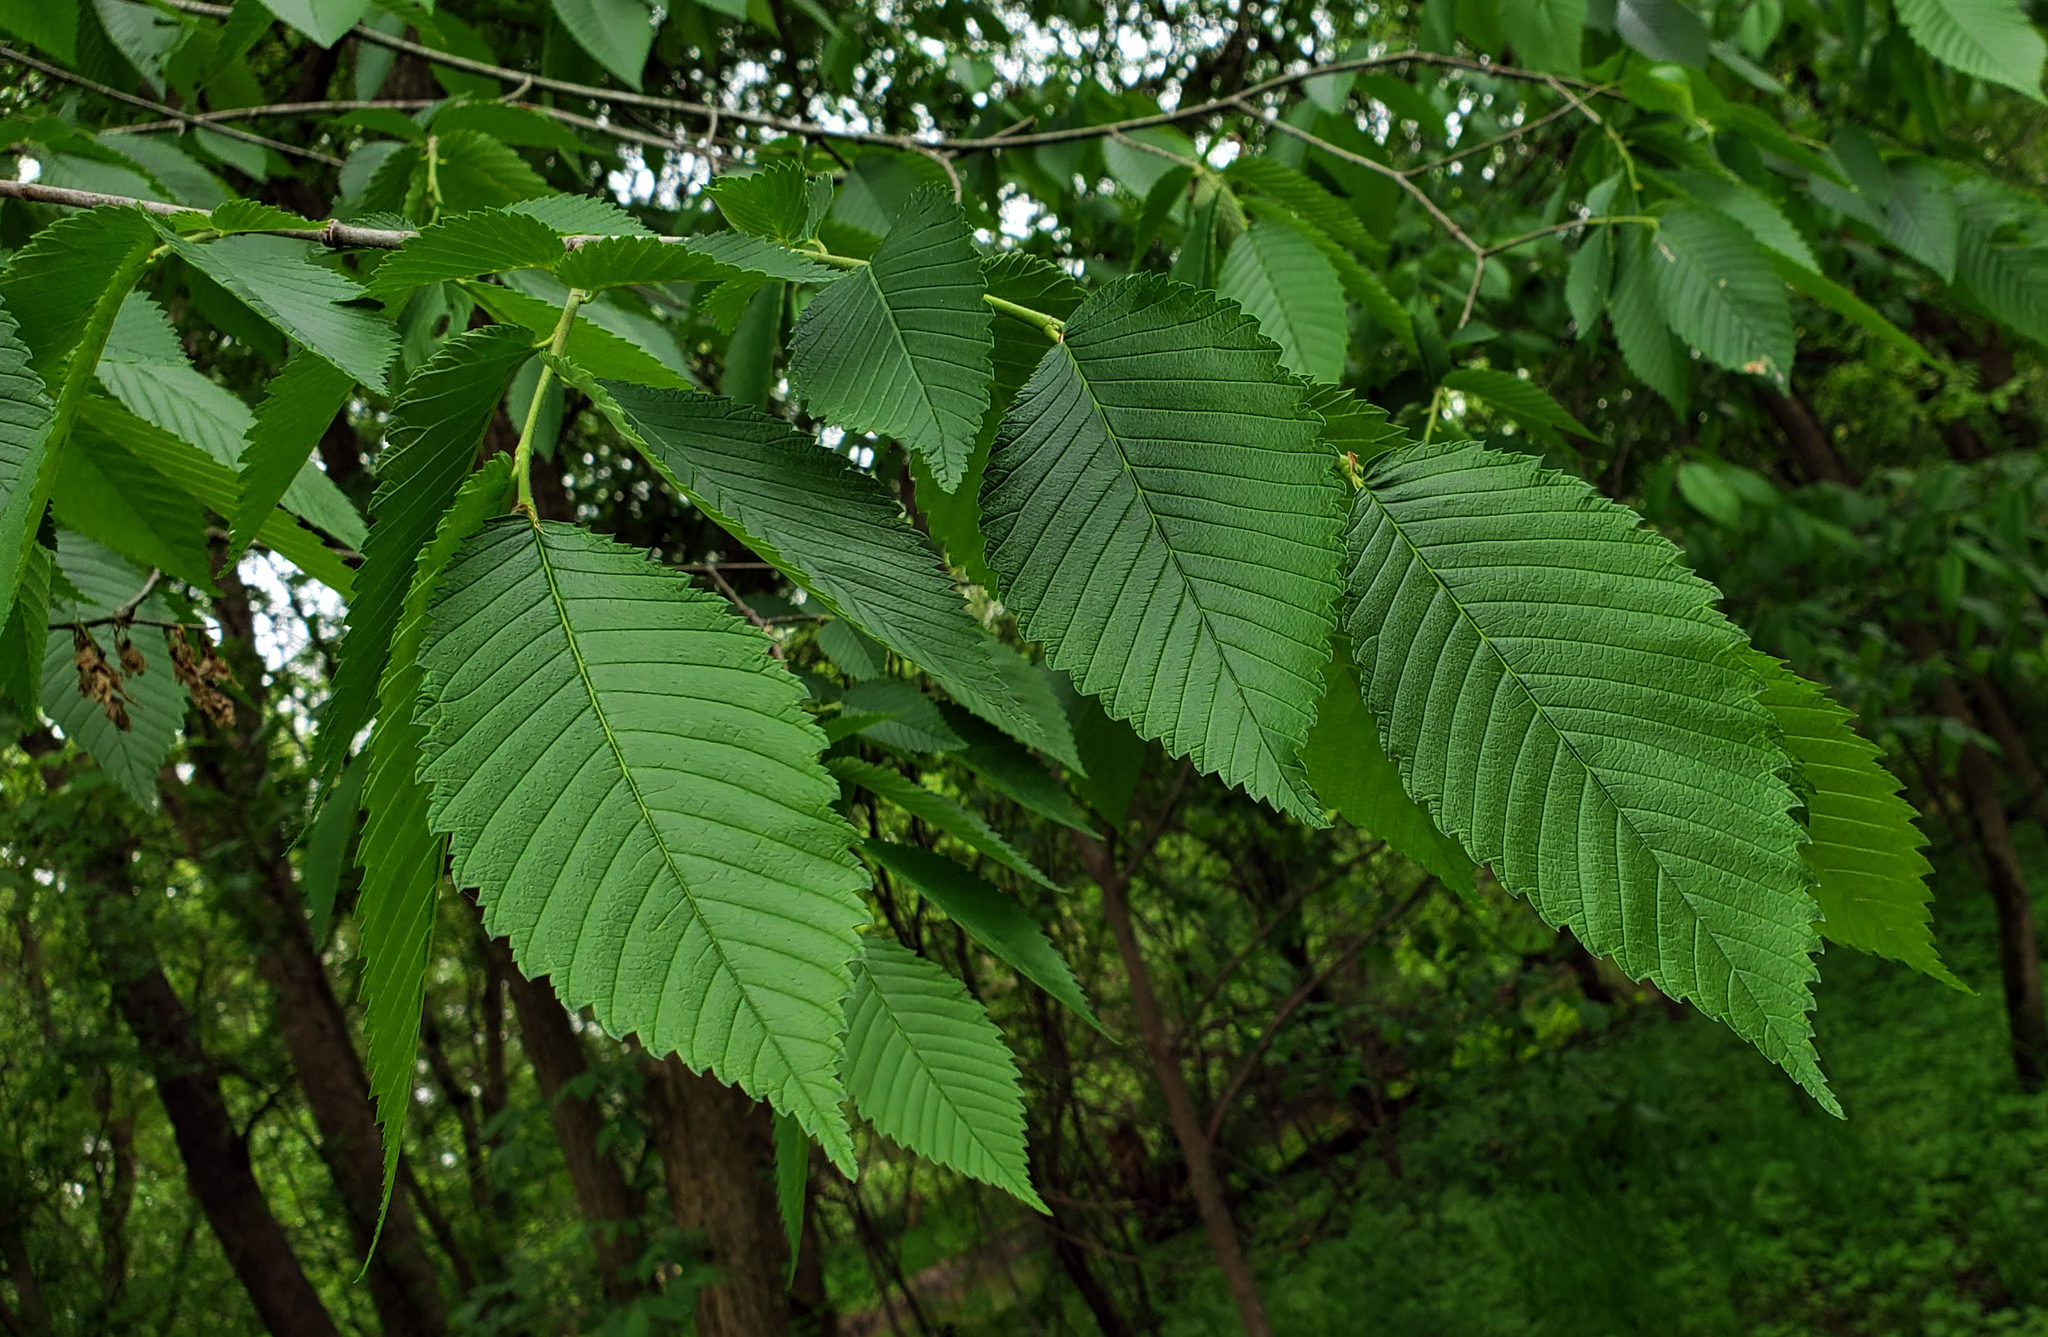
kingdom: Plantae
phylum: Tracheophyta
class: Magnoliopsida
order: Rosales
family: Ulmaceae
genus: Ulmus
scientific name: Ulmus americana
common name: American elm
